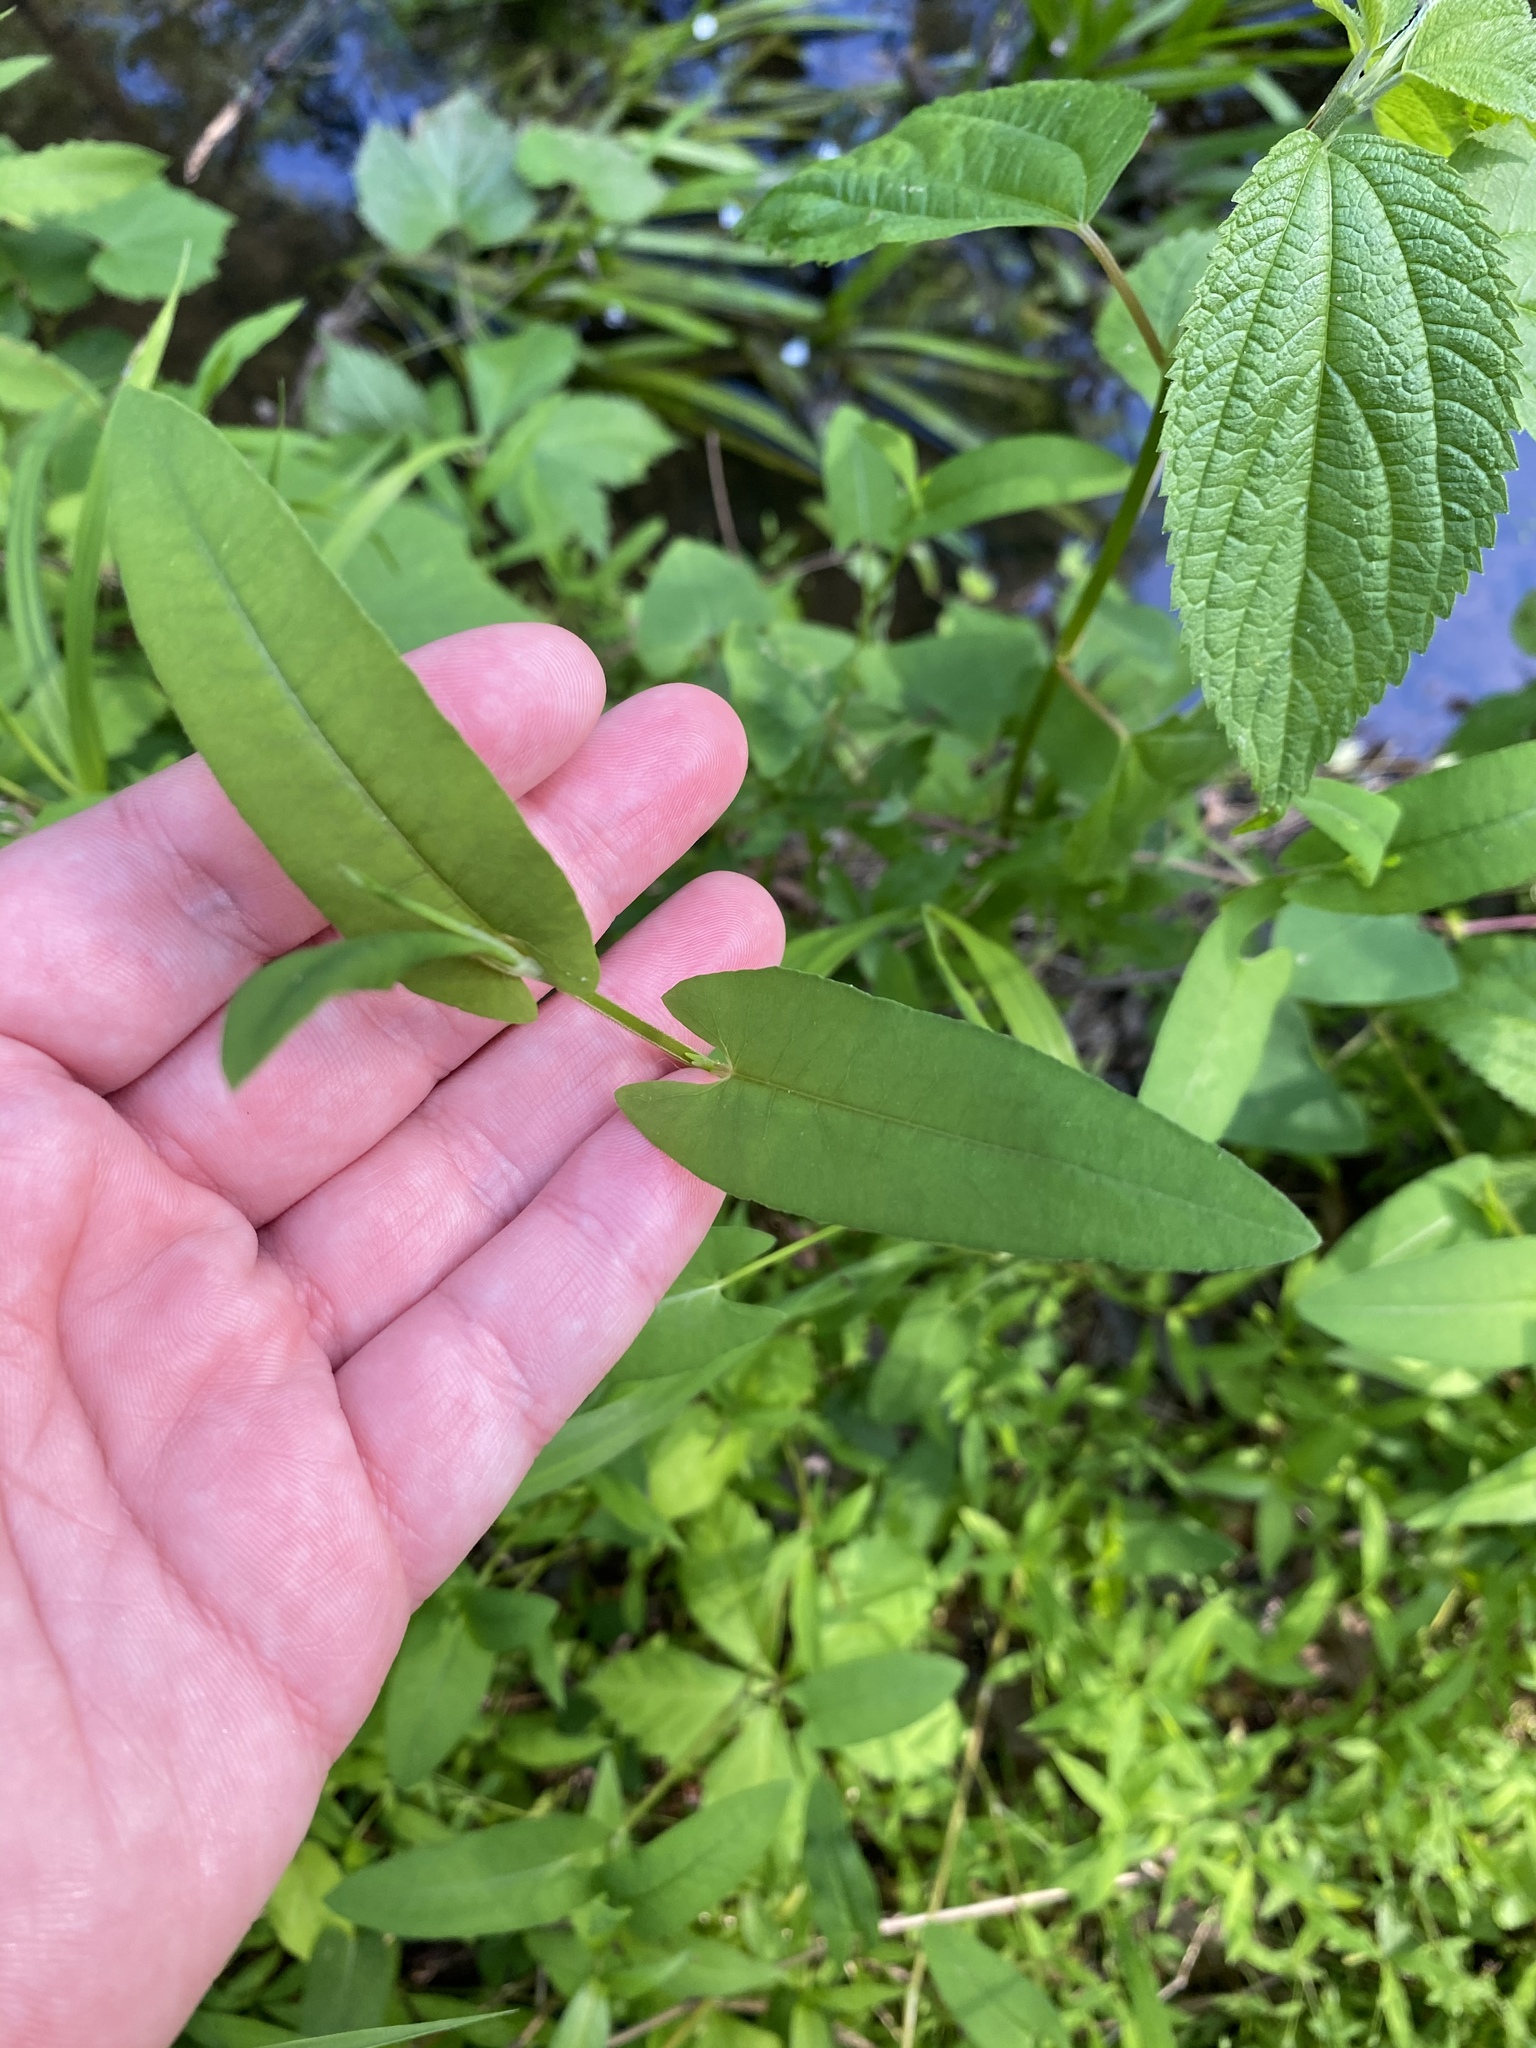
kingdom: Plantae
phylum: Tracheophyta
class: Magnoliopsida
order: Caryophyllales
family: Polygonaceae
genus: Persicaria
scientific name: Persicaria sagittata
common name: American tearthumb
